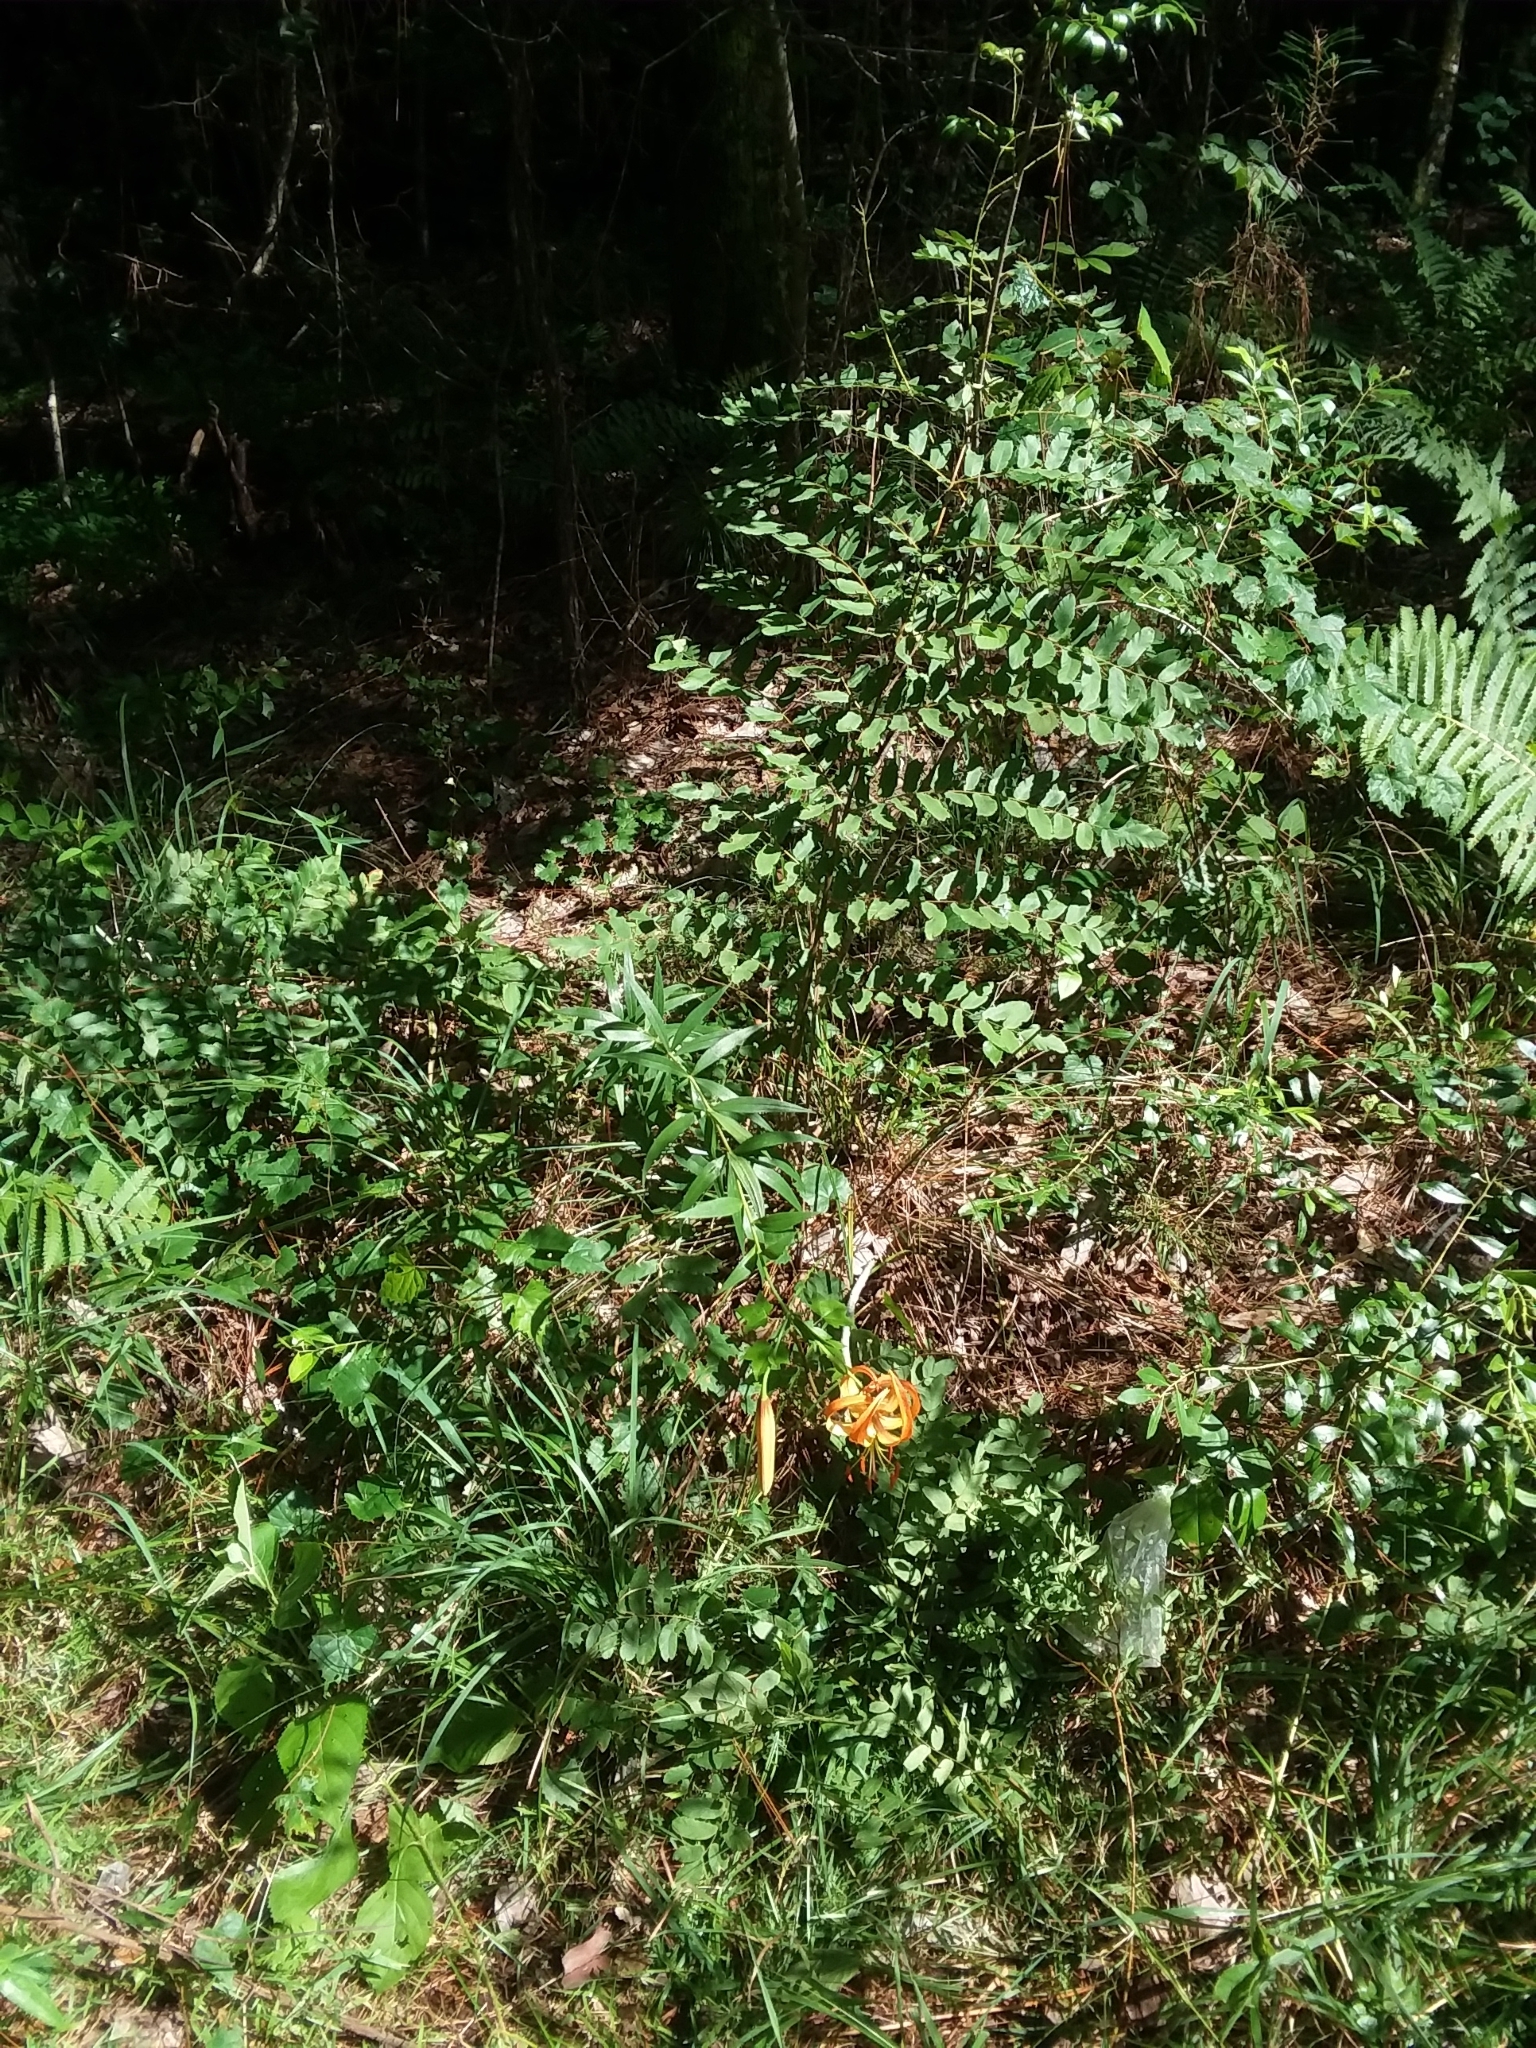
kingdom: Plantae
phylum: Tracheophyta
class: Liliopsida
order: Liliales
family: Liliaceae
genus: Lilium
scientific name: Lilium superbum
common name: American turk's-cap lily
